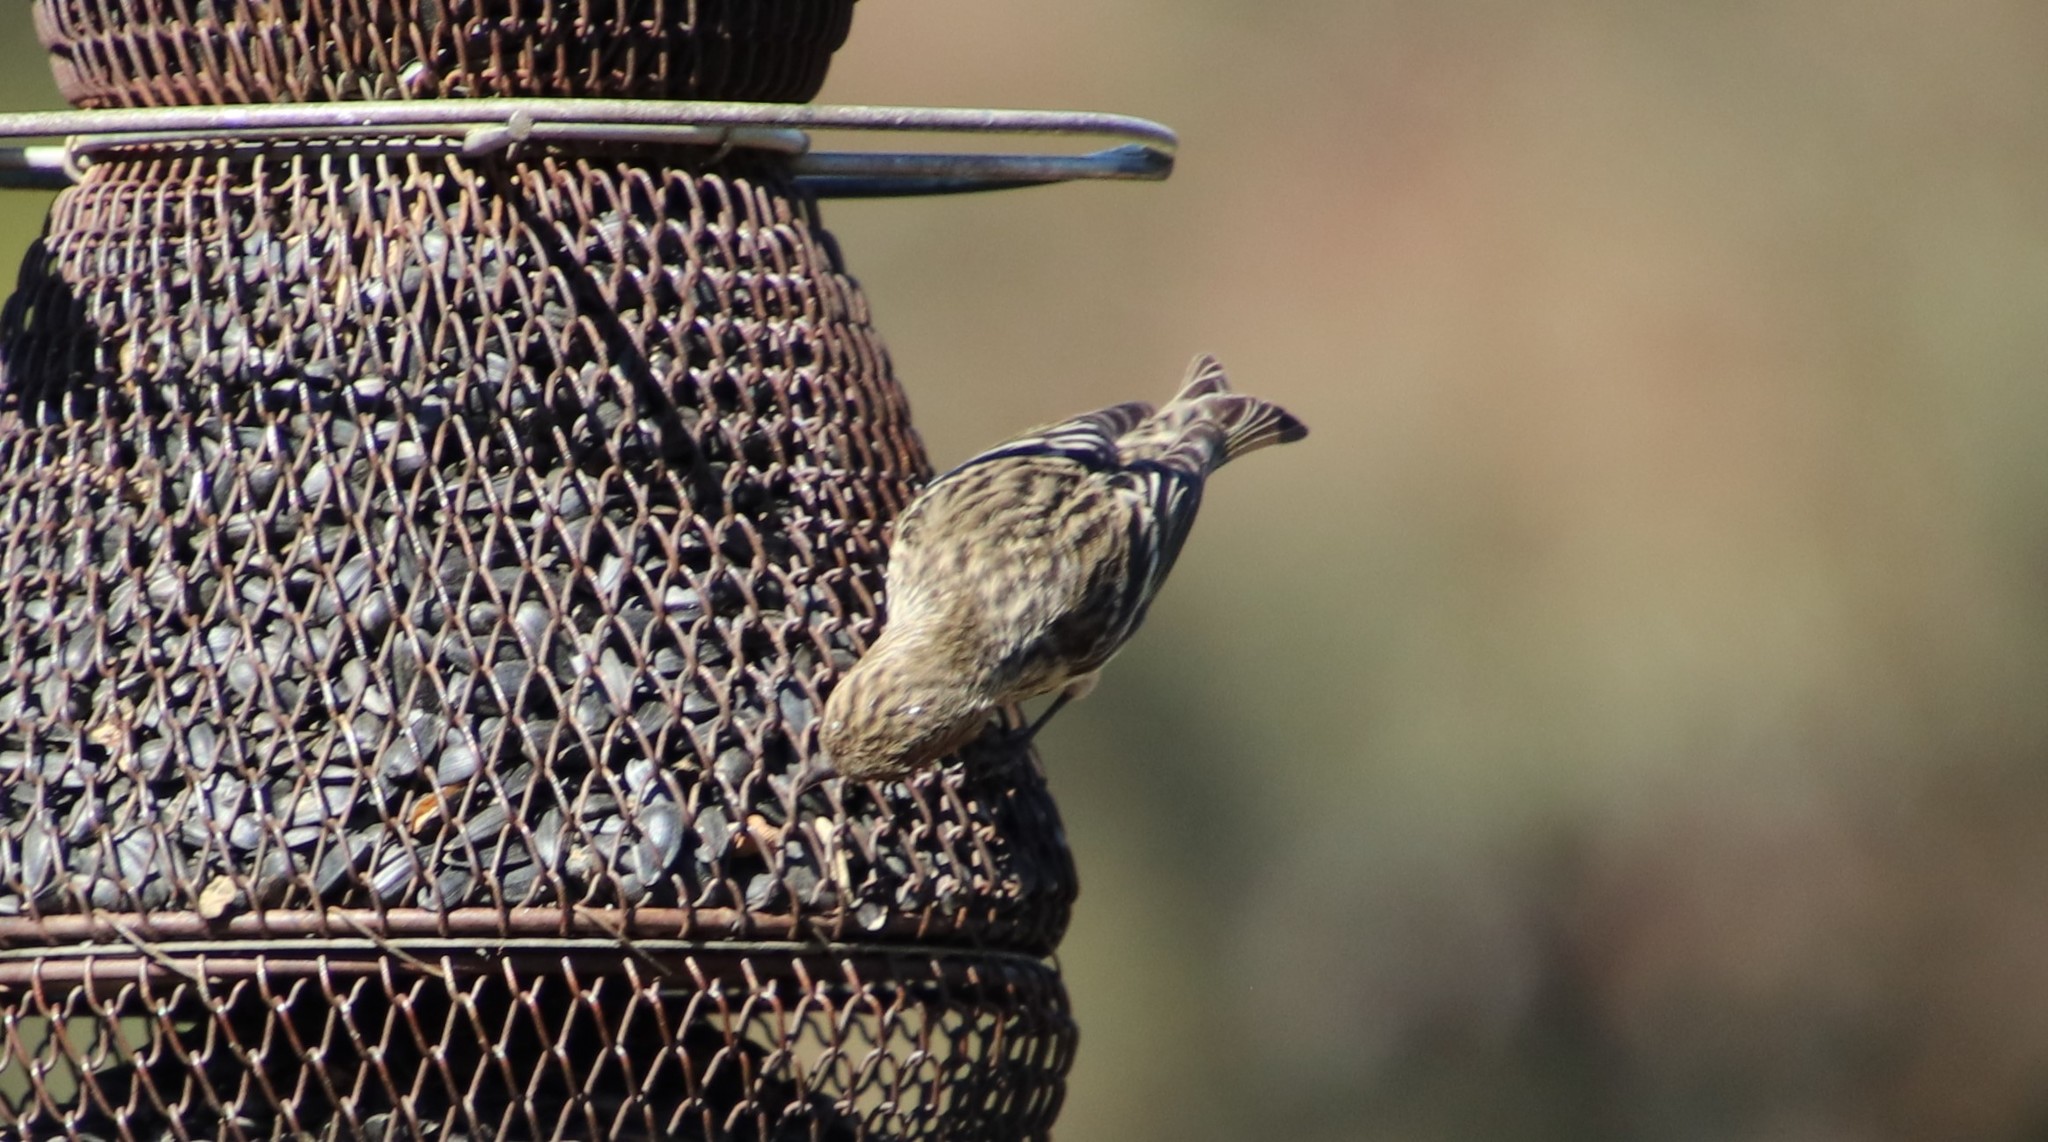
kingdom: Animalia
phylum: Chordata
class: Aves
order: Passeriformes
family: Fringillidae
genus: Spinus
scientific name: Spinus pinus
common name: Pine siskin
